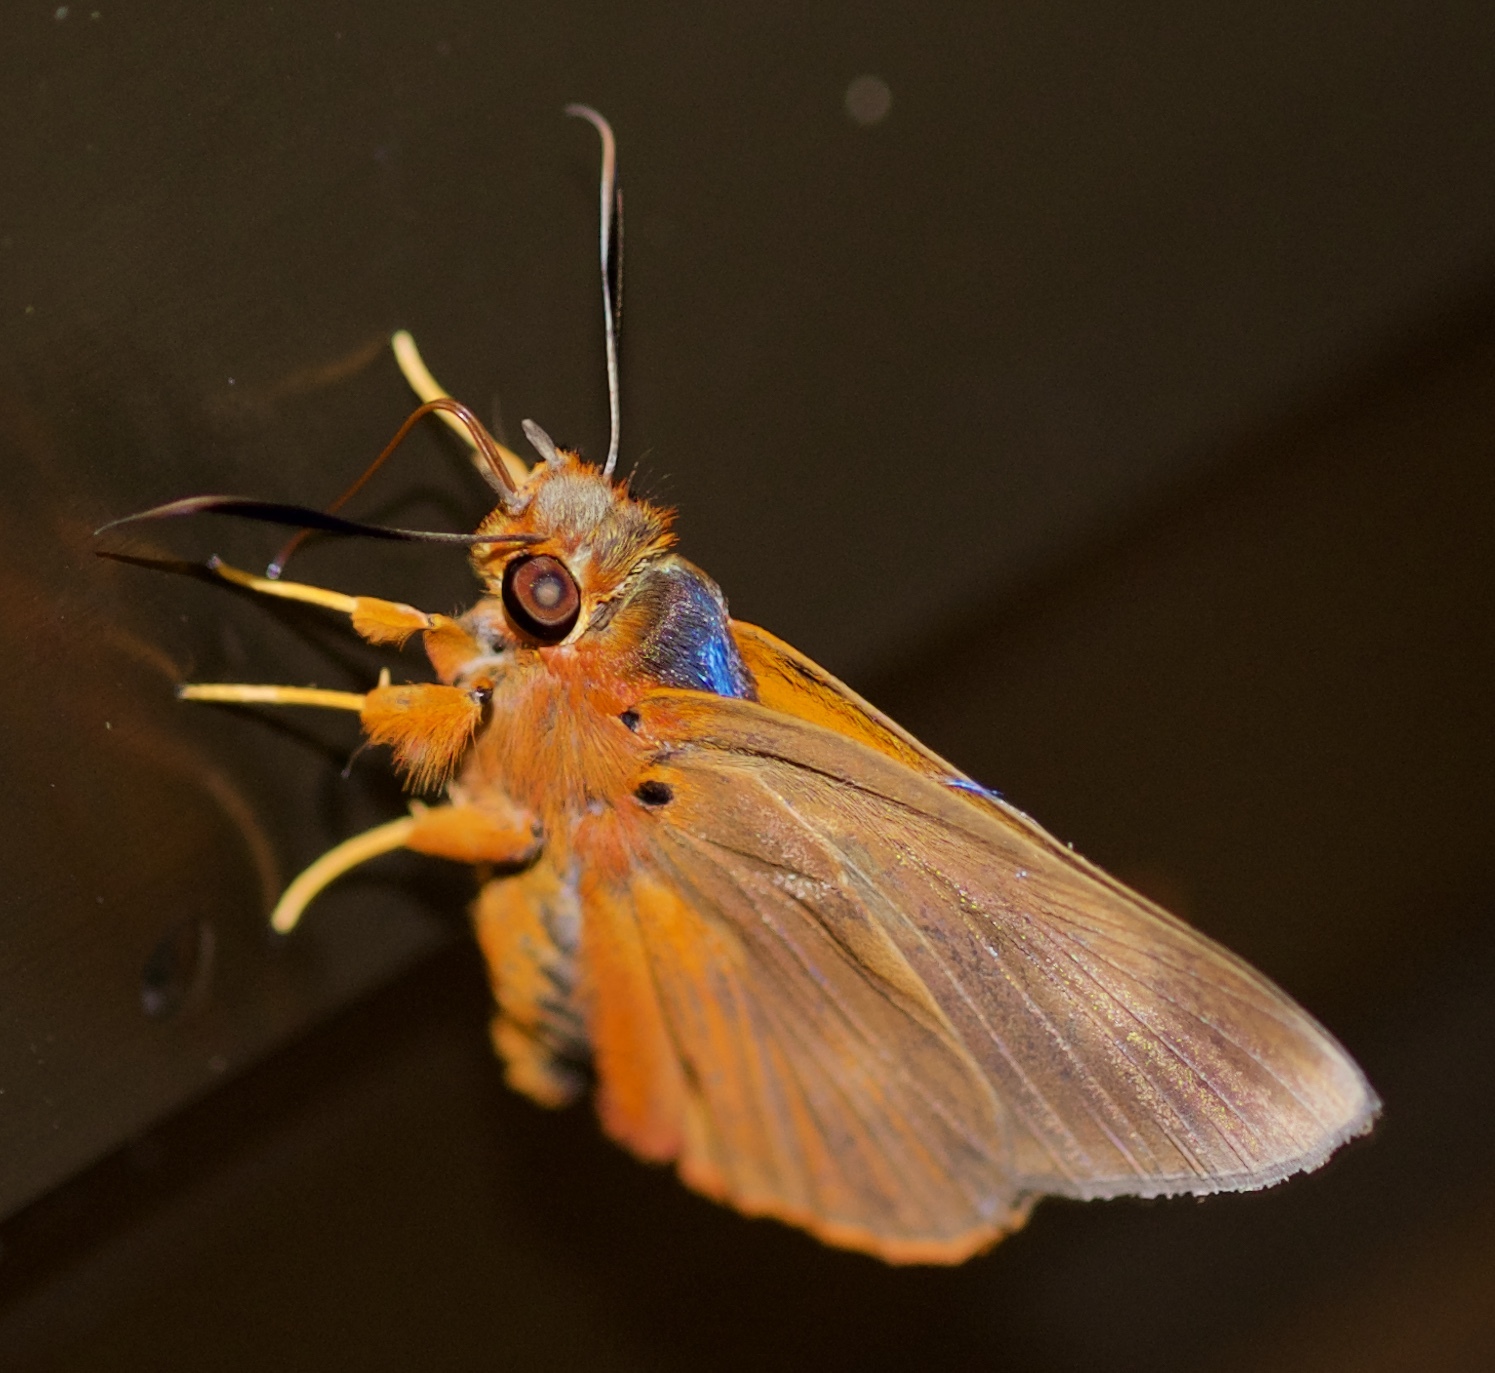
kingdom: Animalia
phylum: Arthropoda
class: Insecta
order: Lepidoptera
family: Hesperiidae
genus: Bibasis
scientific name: Bibasis harisa
